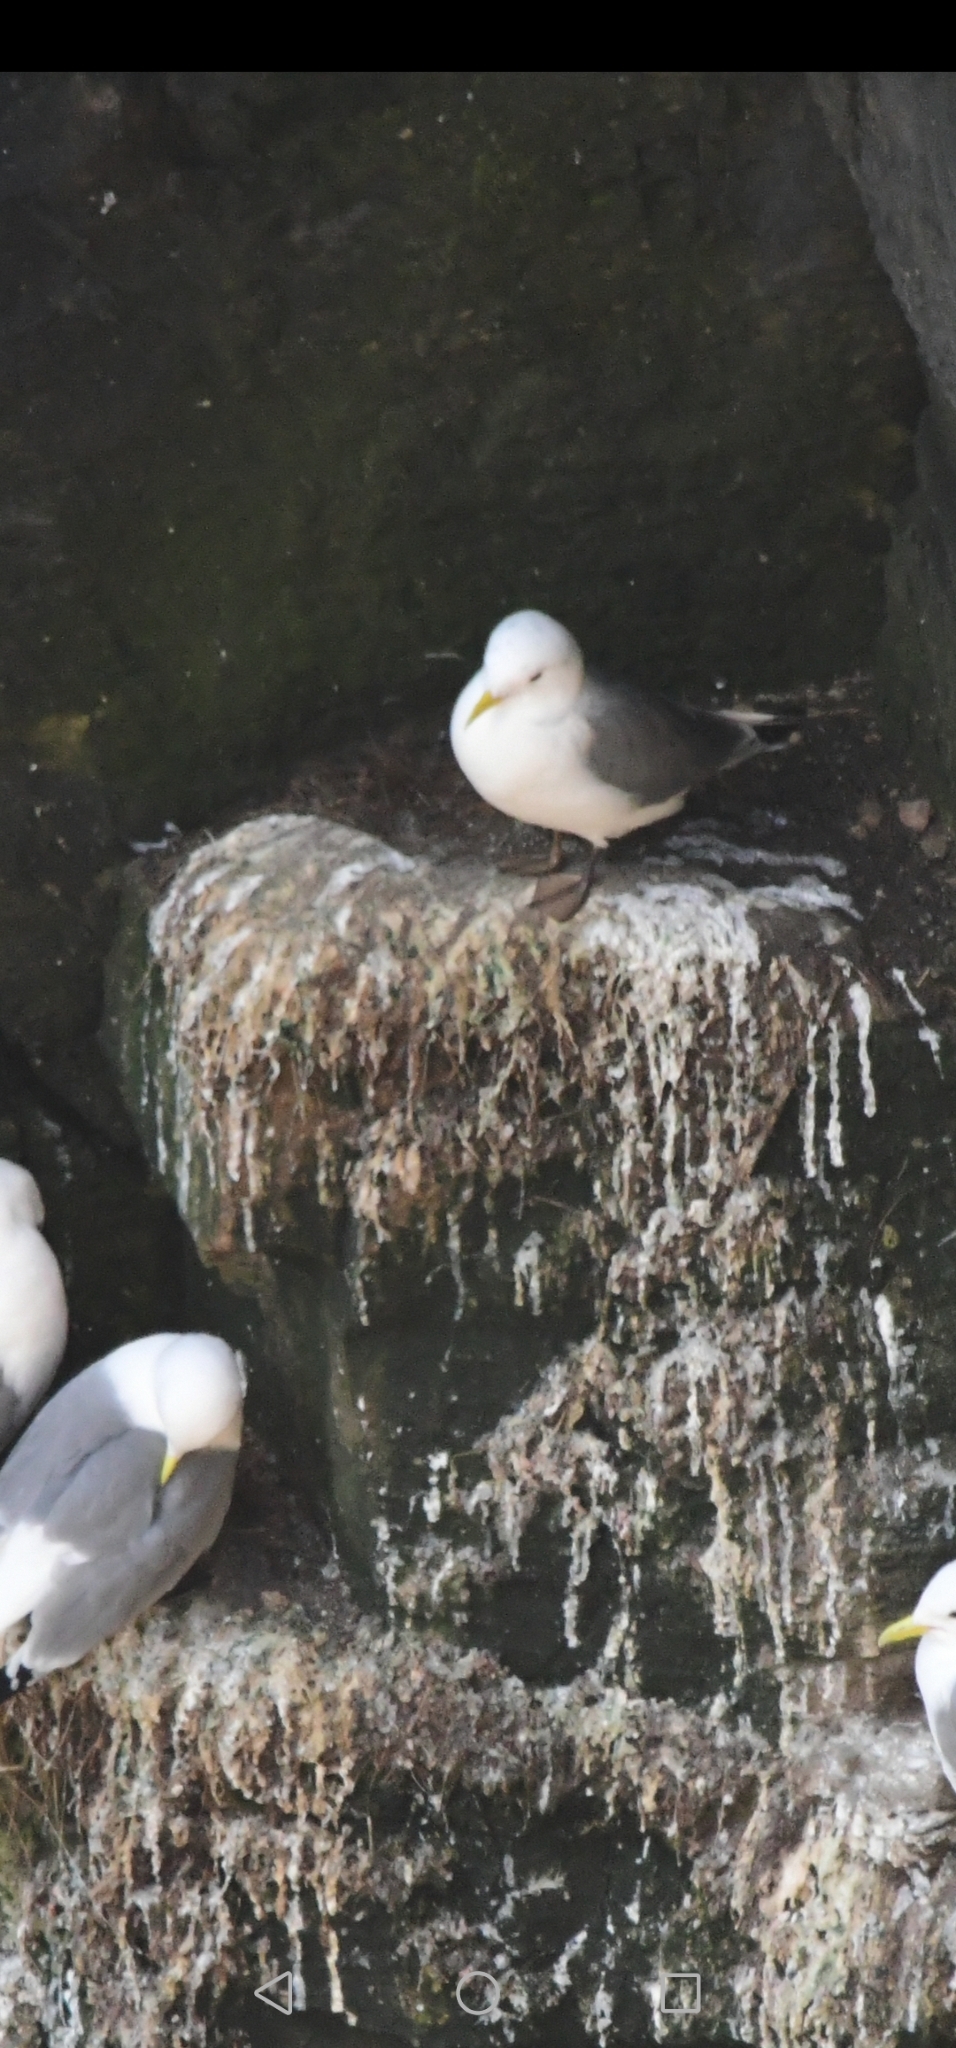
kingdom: Animalia
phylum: Chordata
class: Aves
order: Charadriiformes
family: Laridae
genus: Rissa
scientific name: Rissa tridactyla
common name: Black-legged kittiwake
